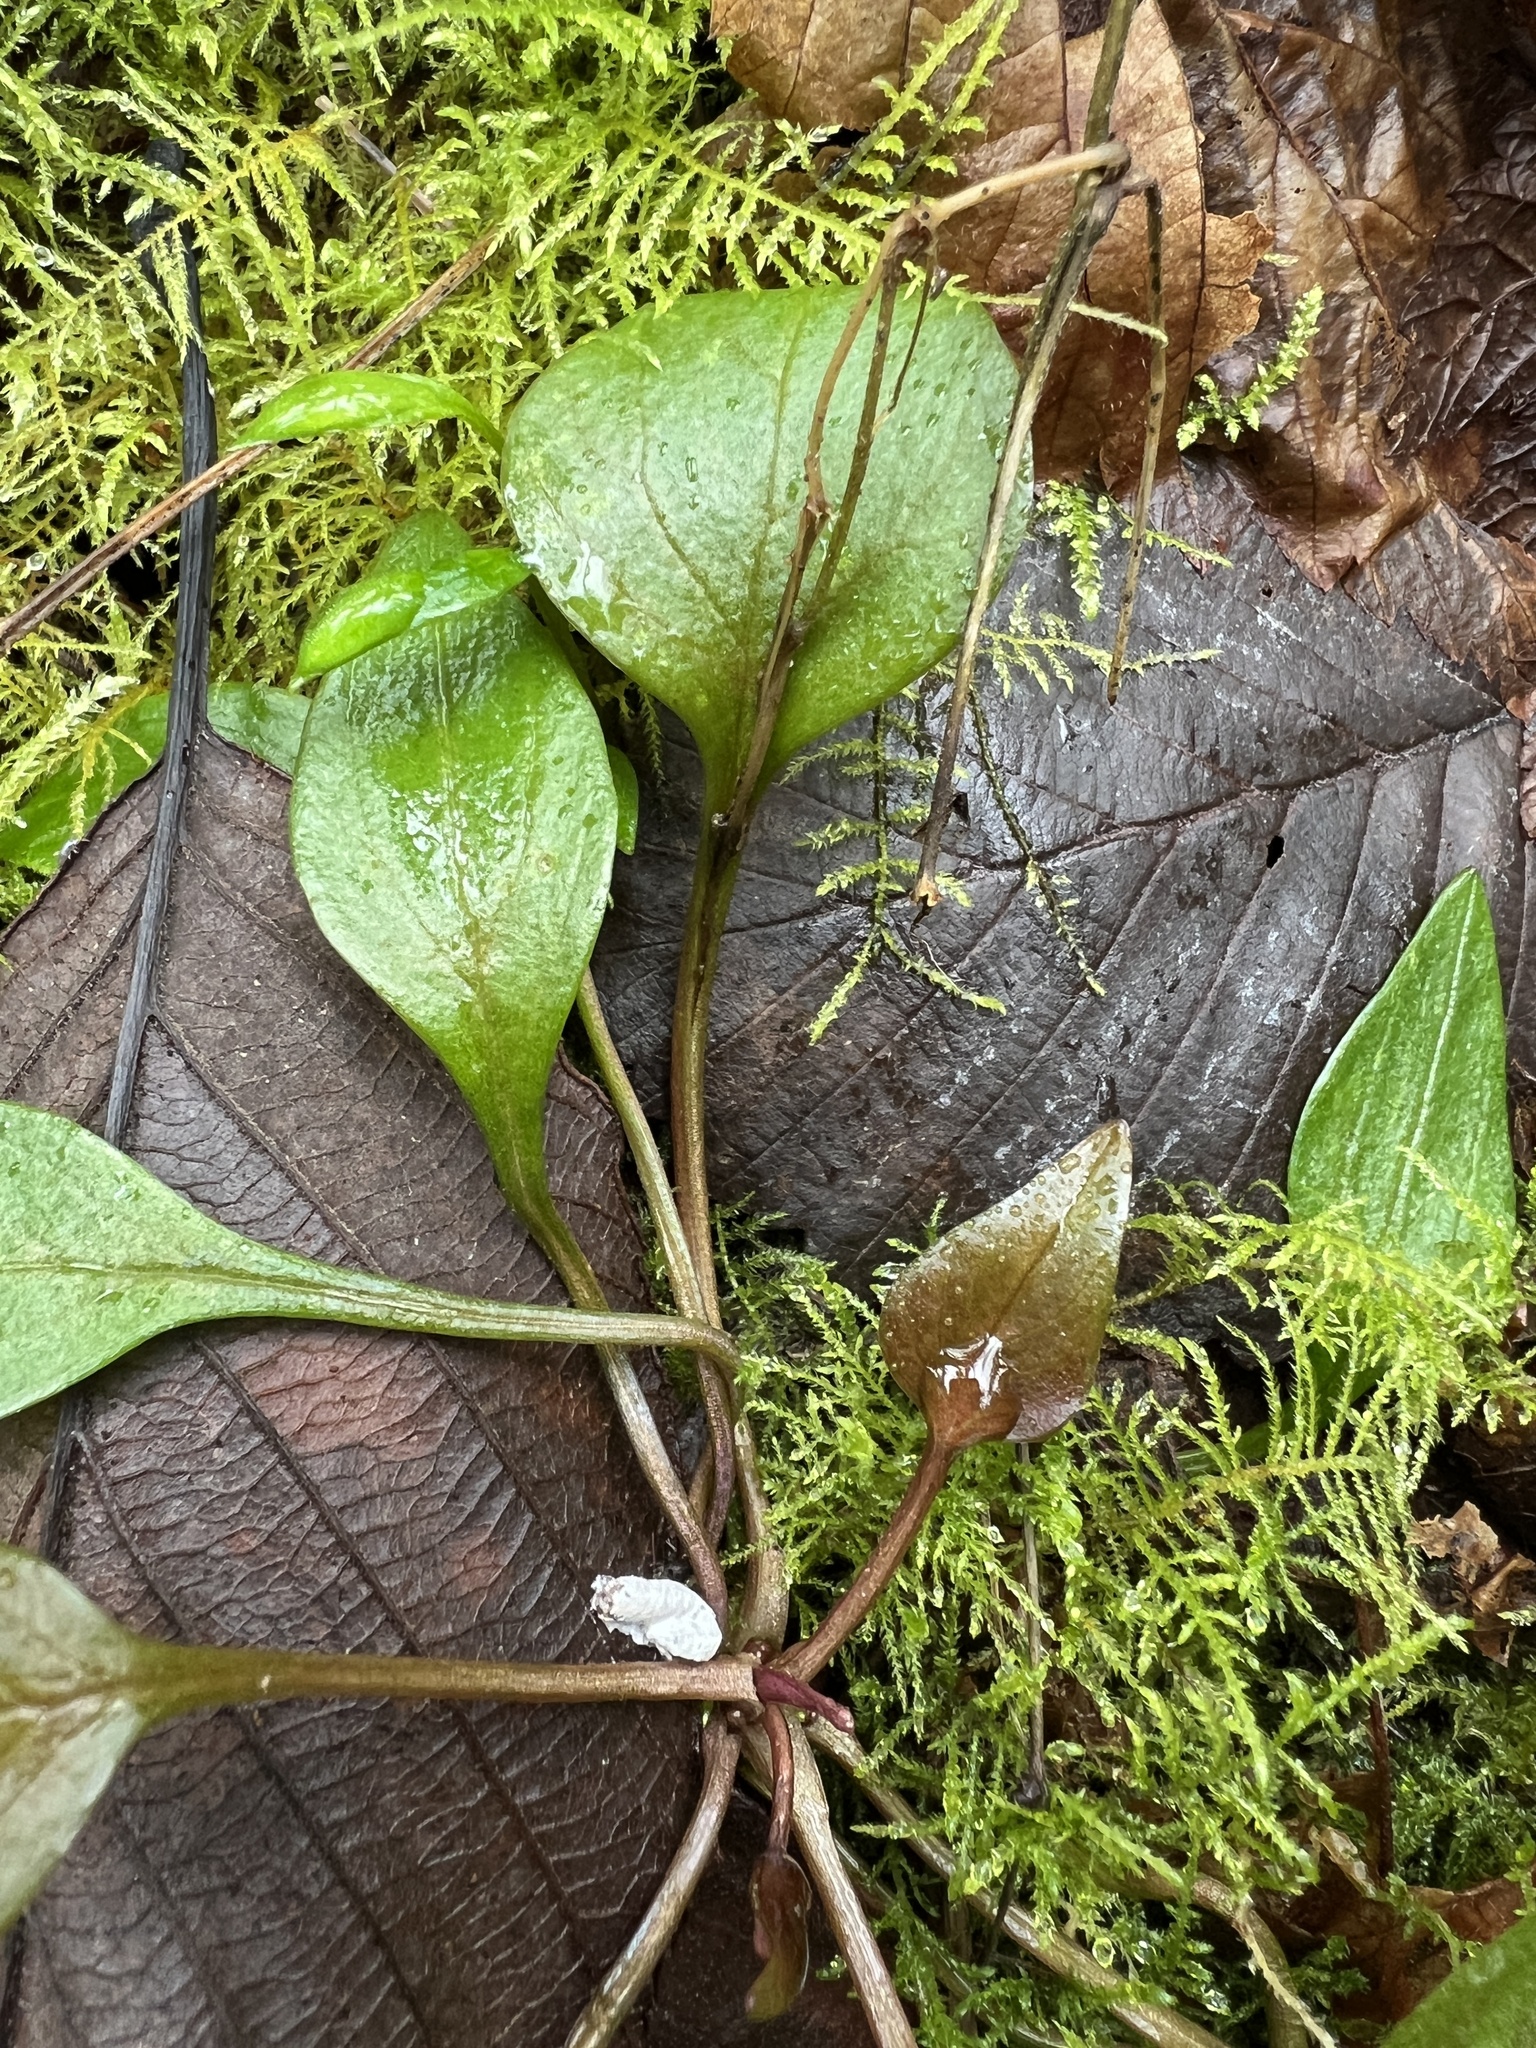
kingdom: Plantae
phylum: Tracheophyta
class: Magnoliopsida
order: Caryophyllales
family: Montiaceae
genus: Claytonia
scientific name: Claytonia sibirica
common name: Pink purslane
